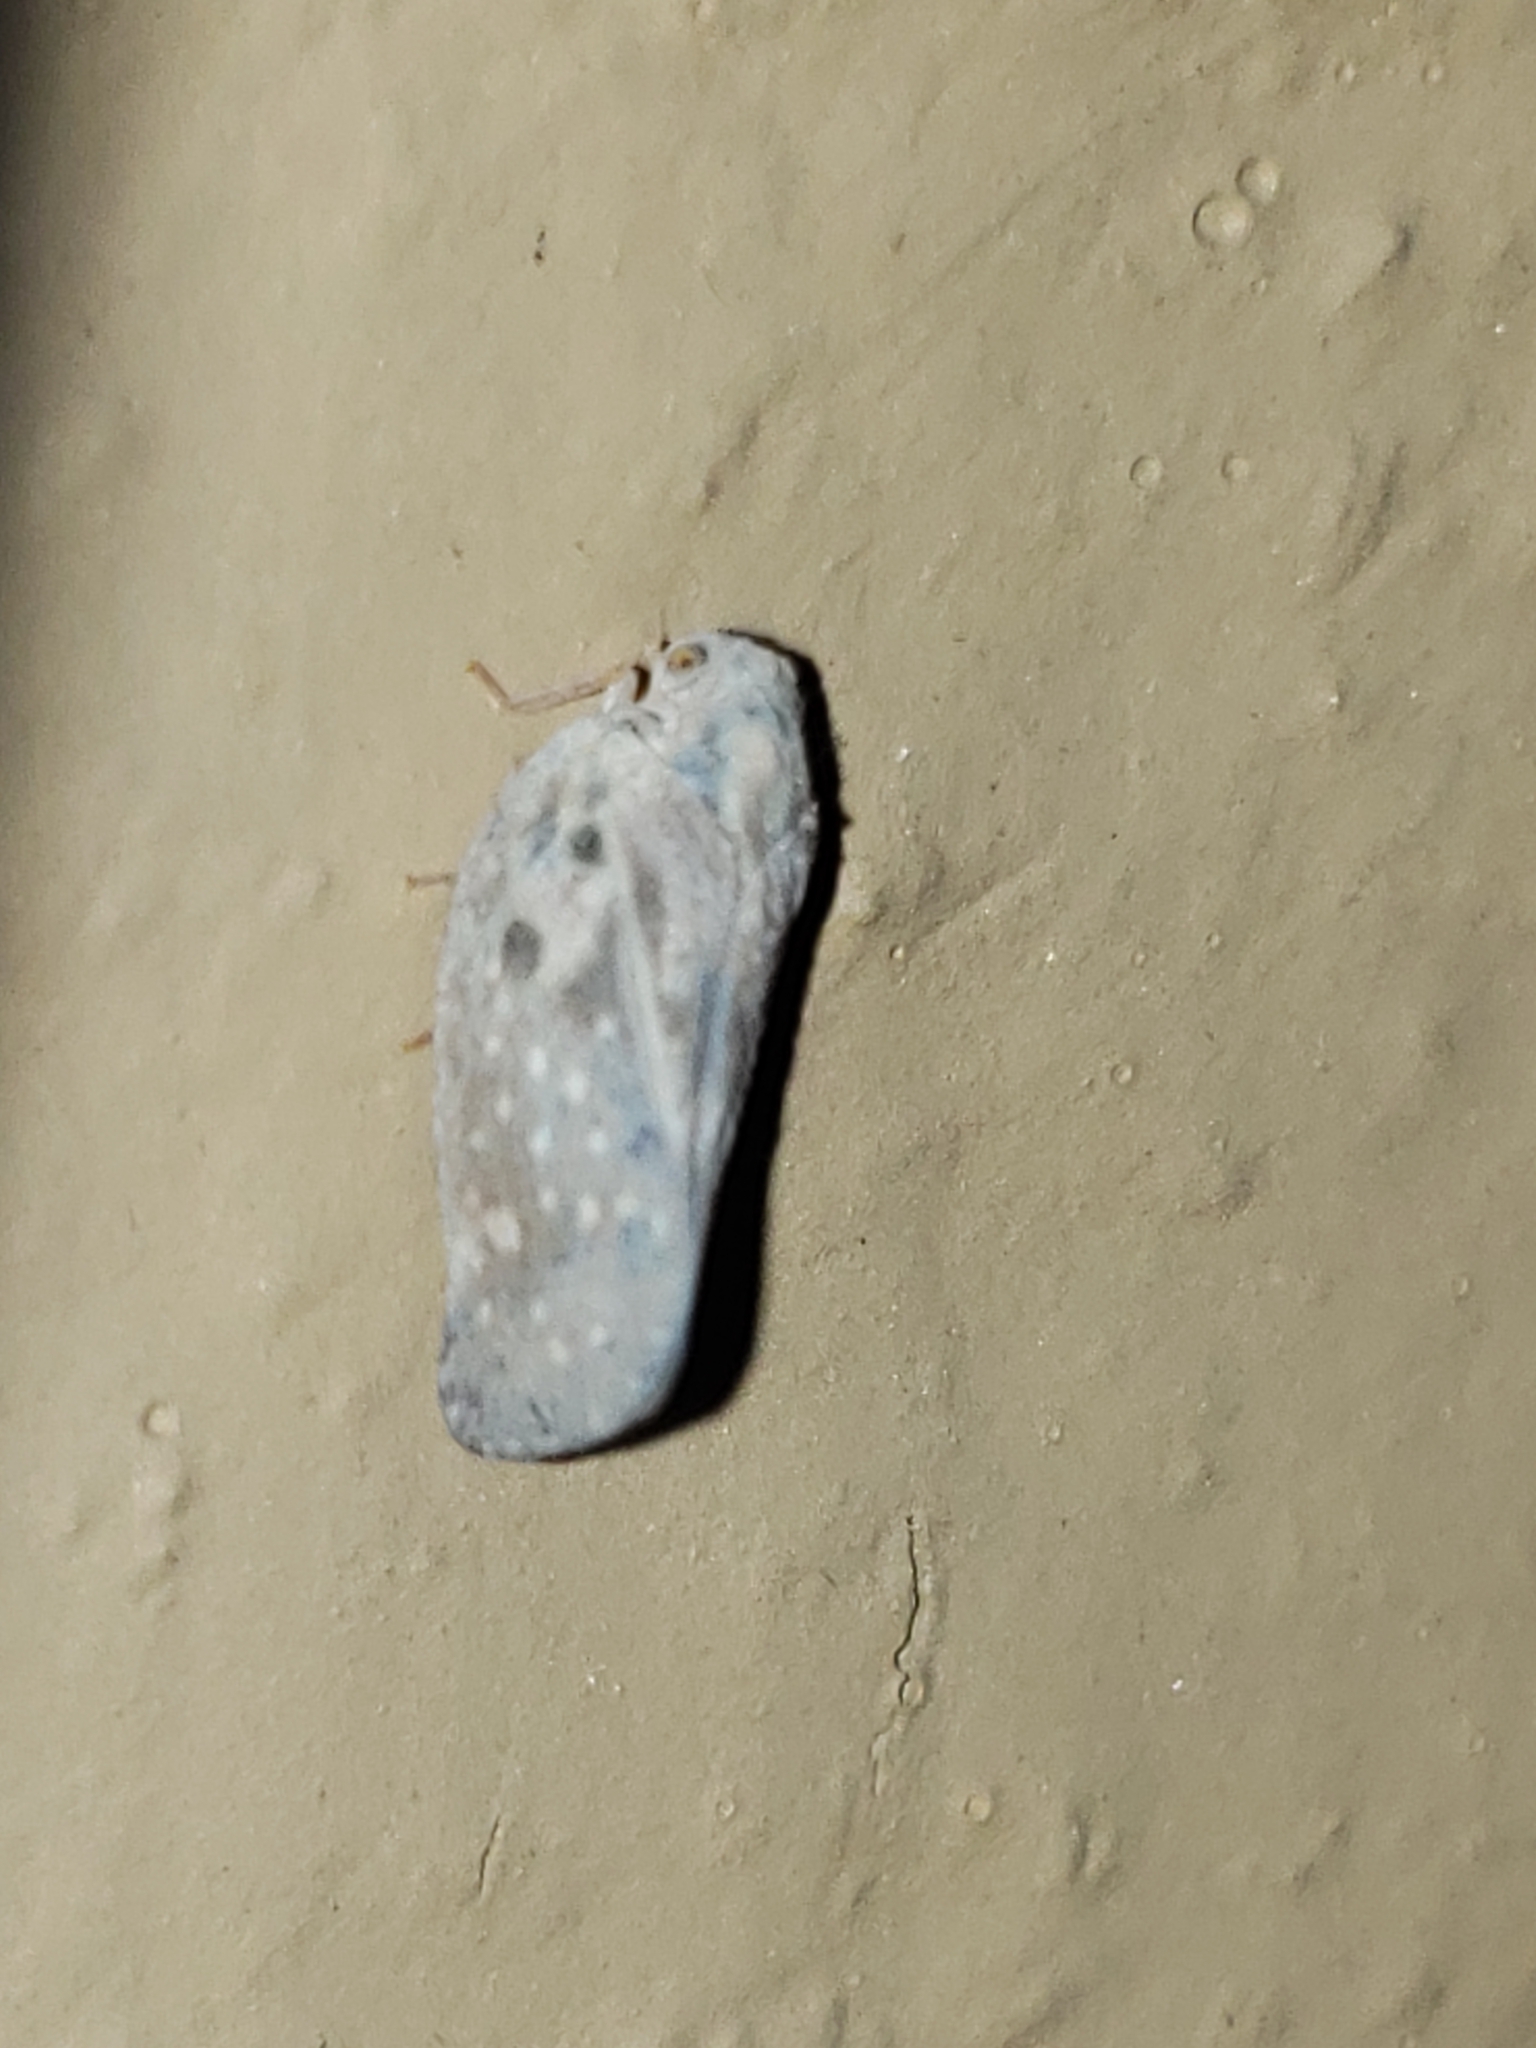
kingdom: Animalia
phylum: Arthropoda
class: Insecta
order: Hemiptera
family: Flatidae
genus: Metcalfa
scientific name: Metcalfa pruinosa
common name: Citrus flatid planthopper
